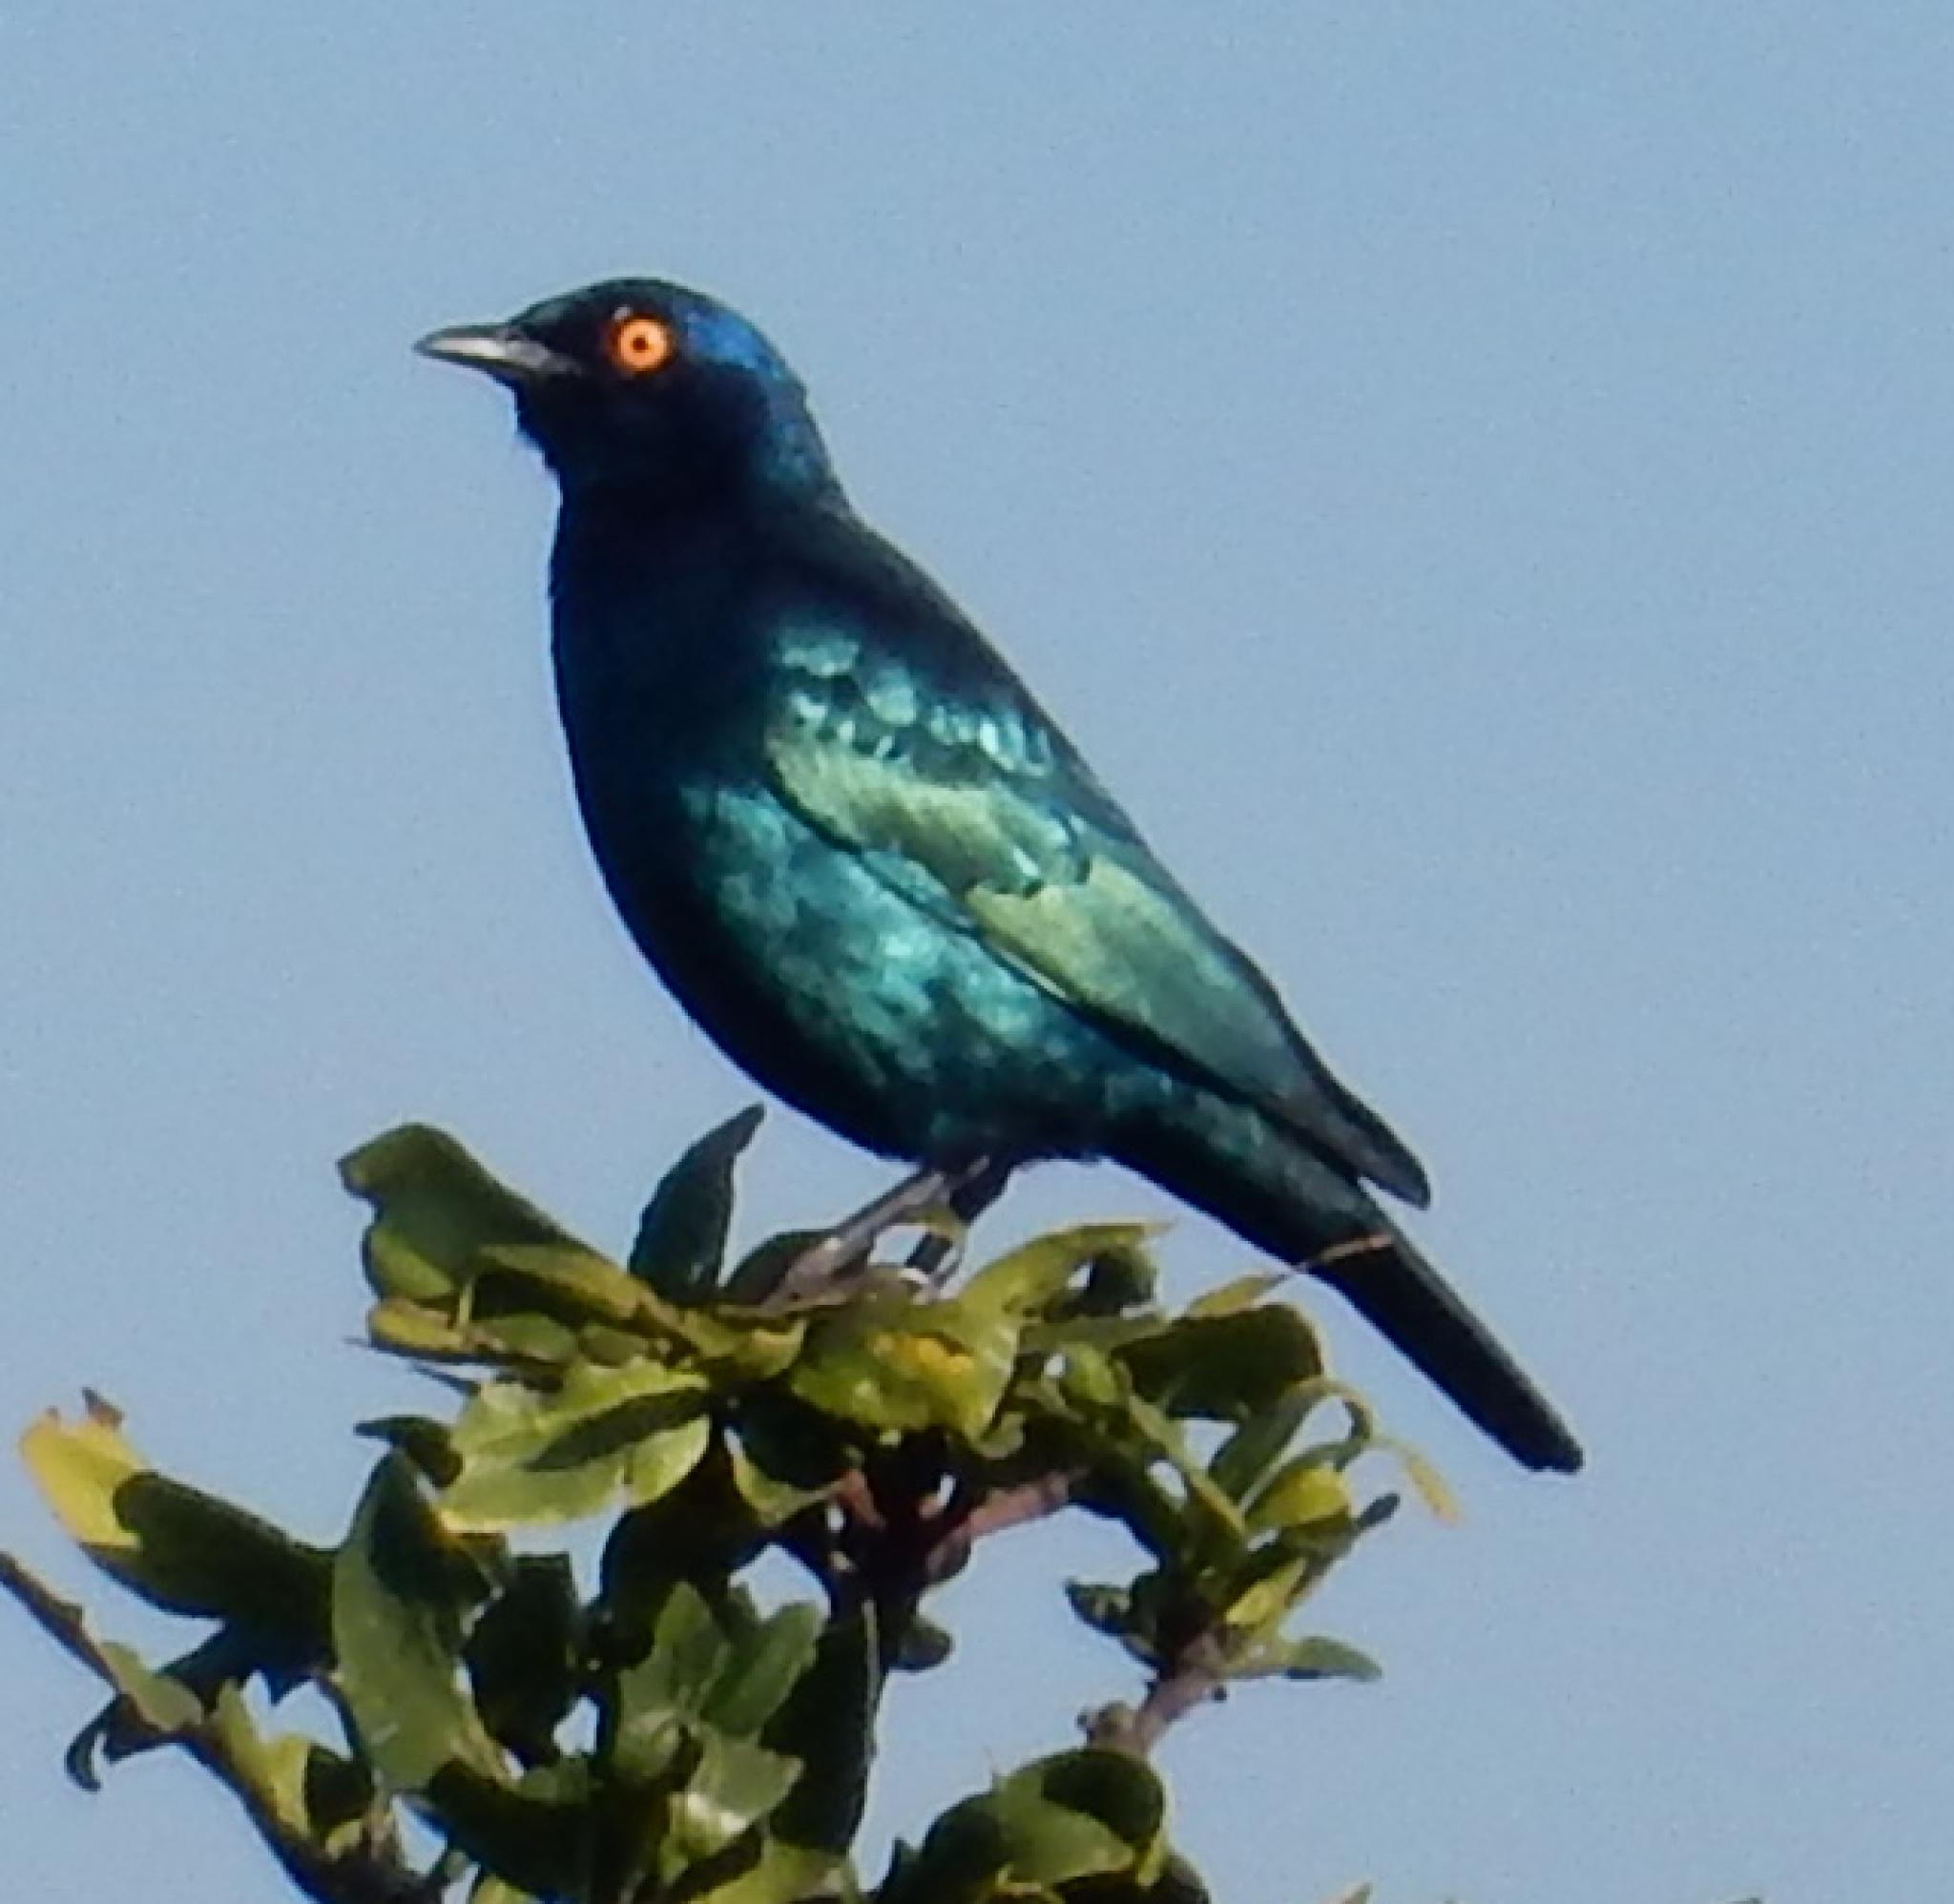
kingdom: Animalia
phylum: Chordata
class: Aves
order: Passeriformes
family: Sturnidae
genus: Lamprotornis
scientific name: Lamprotornis nitens
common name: Cape starling
